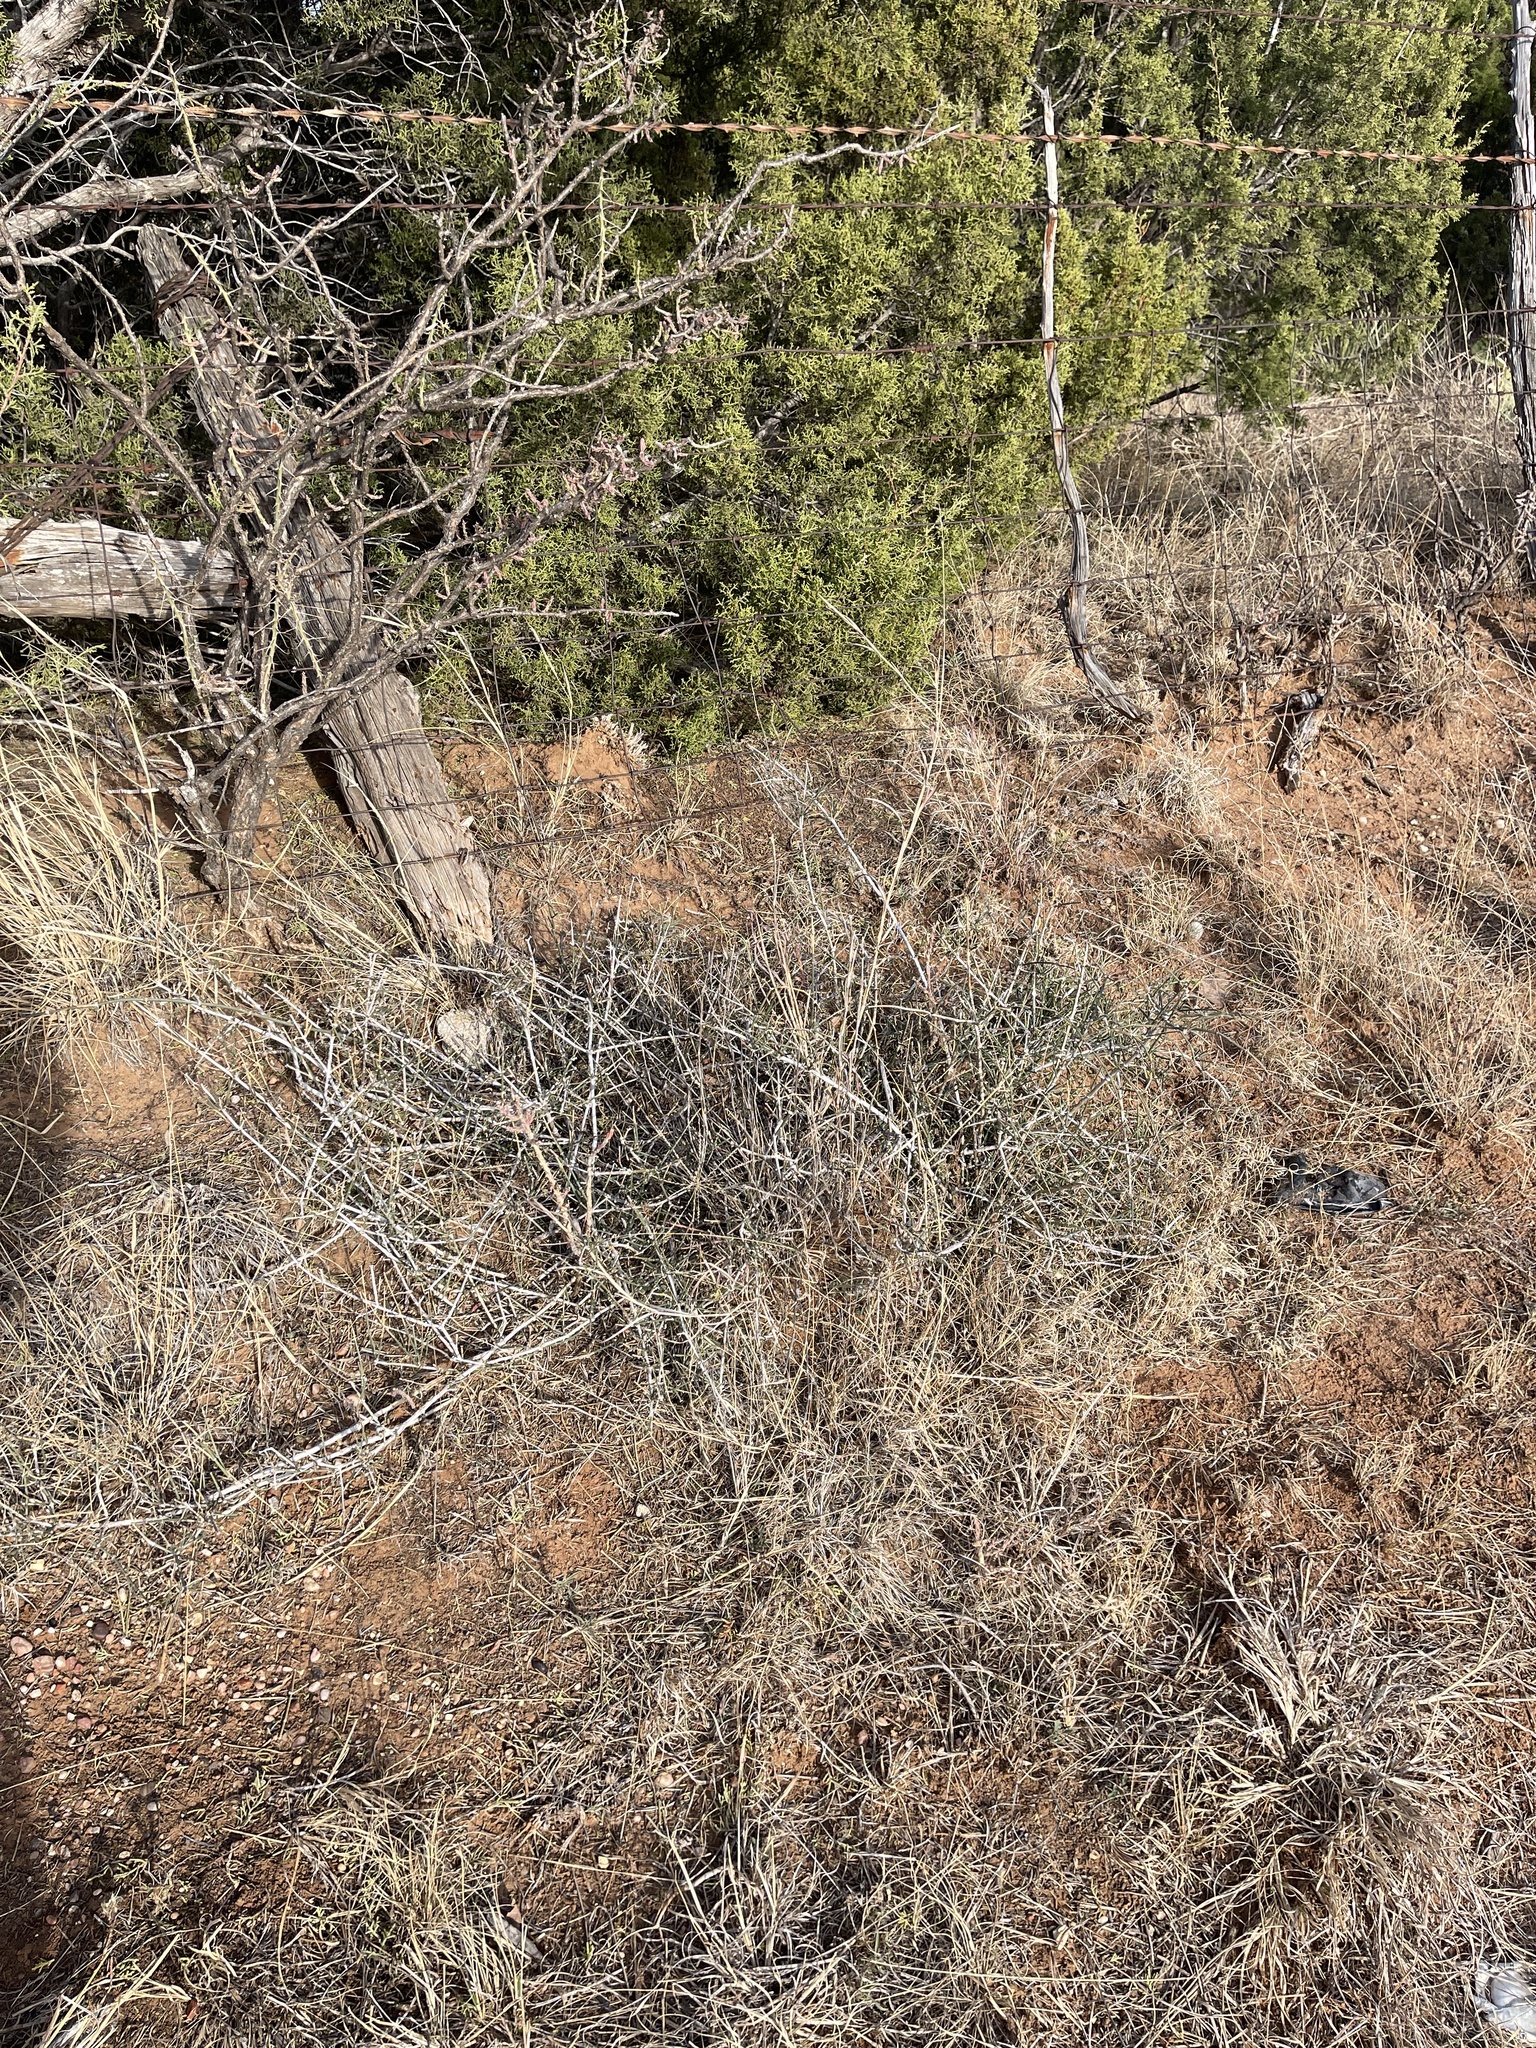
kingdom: Plantae
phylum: Tracheophyta
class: Gnetopsida
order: Ephedrales
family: Ephedraceae
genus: Ephedra
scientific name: Ephedra antisyphilitica
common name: Clipweed
